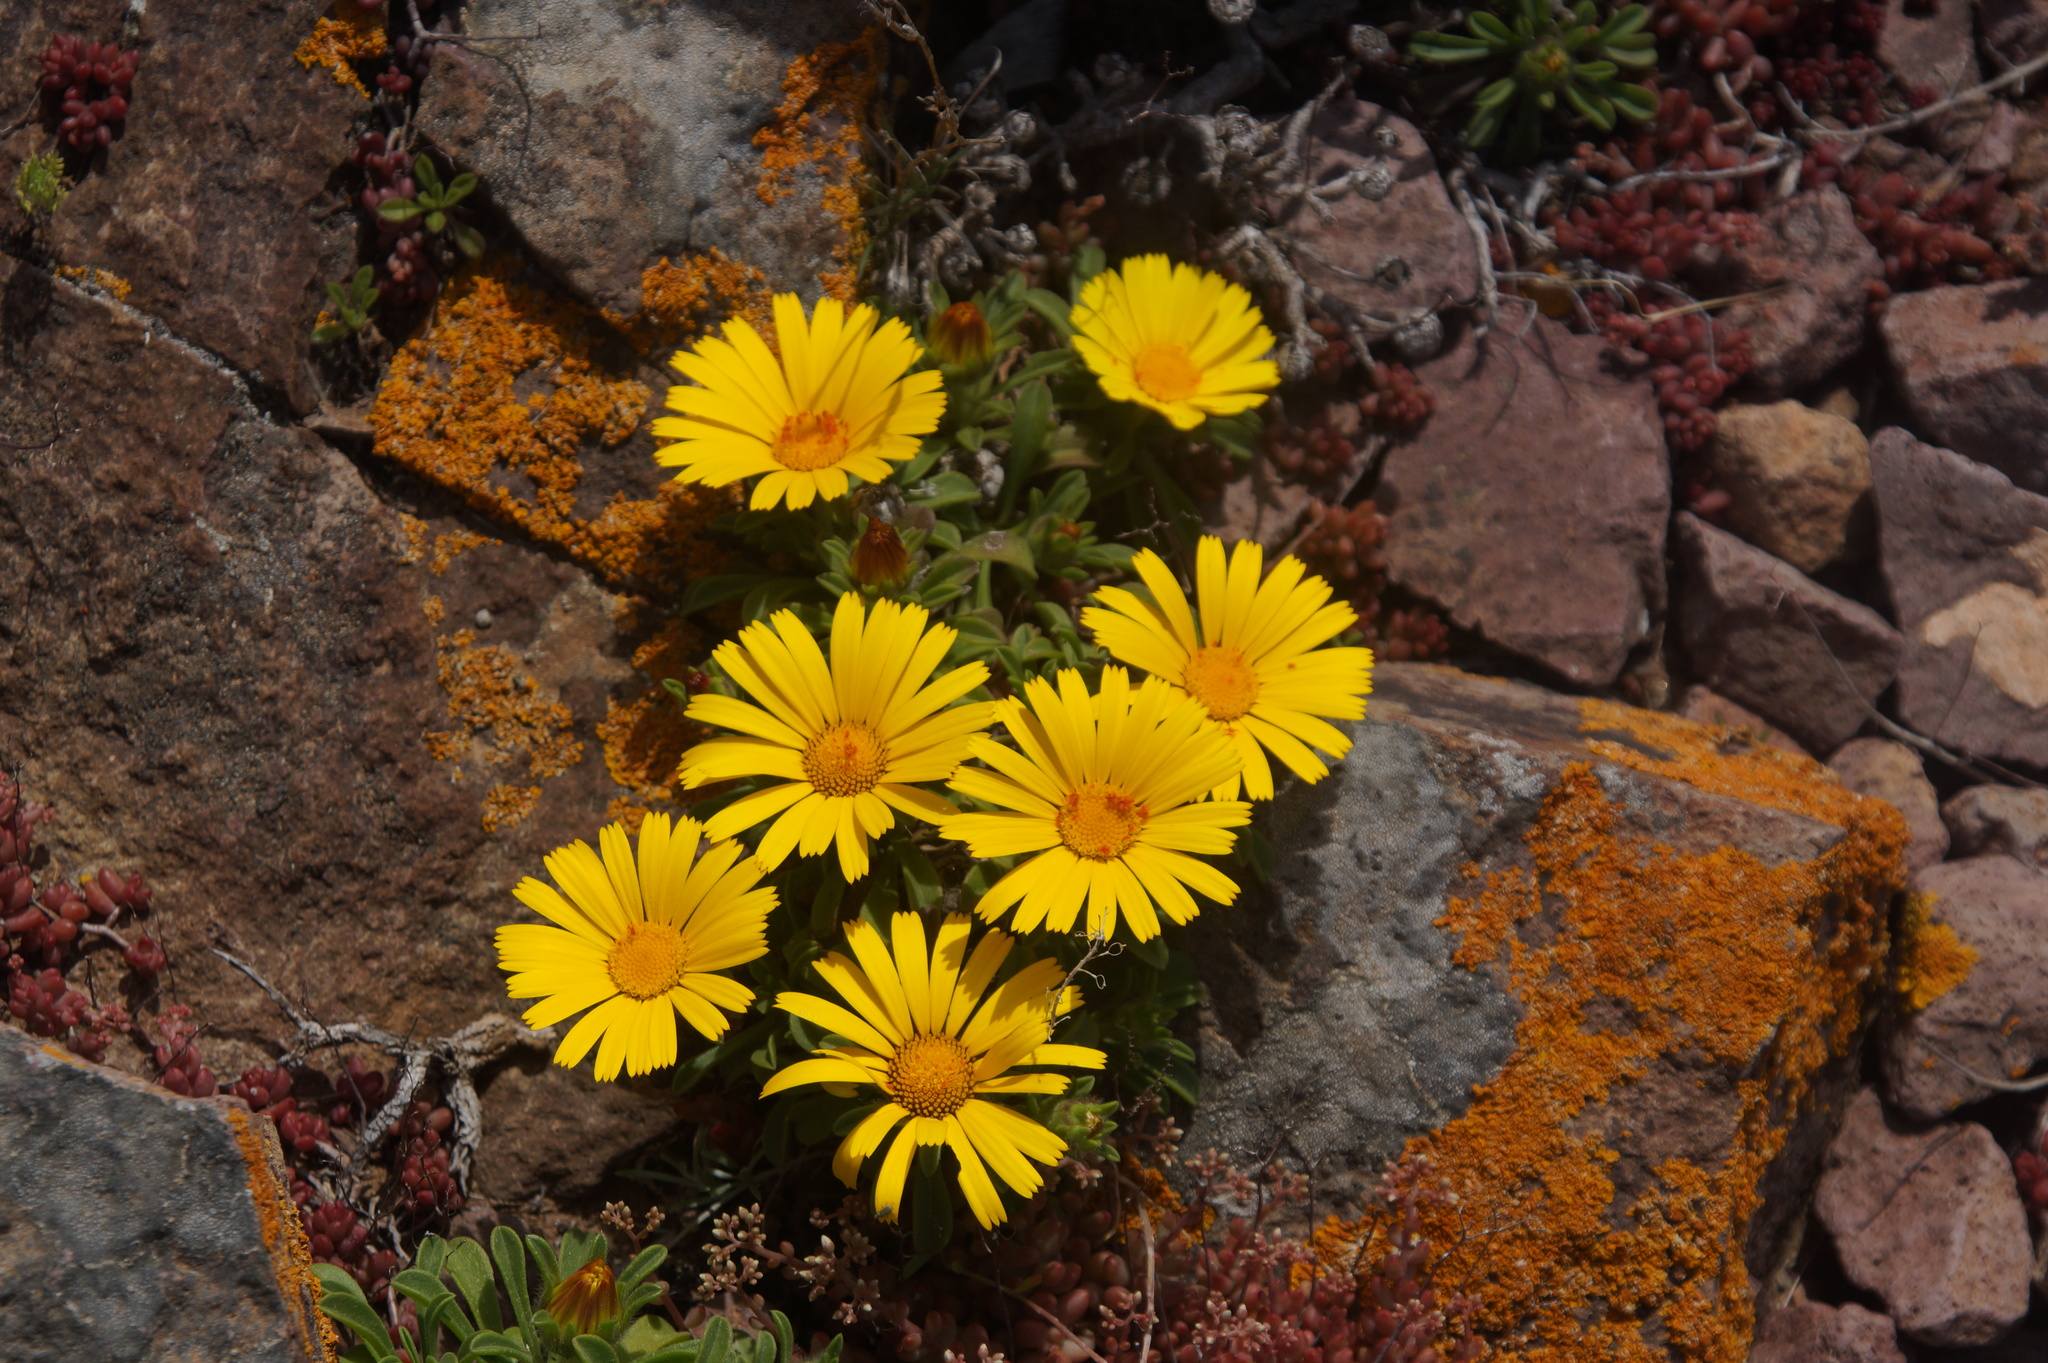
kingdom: Plantae
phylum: Tracheophyta
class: Magnoliopsida
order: Asterales
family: Asteraceae
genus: Pallenis
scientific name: Pallenis maritima
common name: Golden coin daisy
